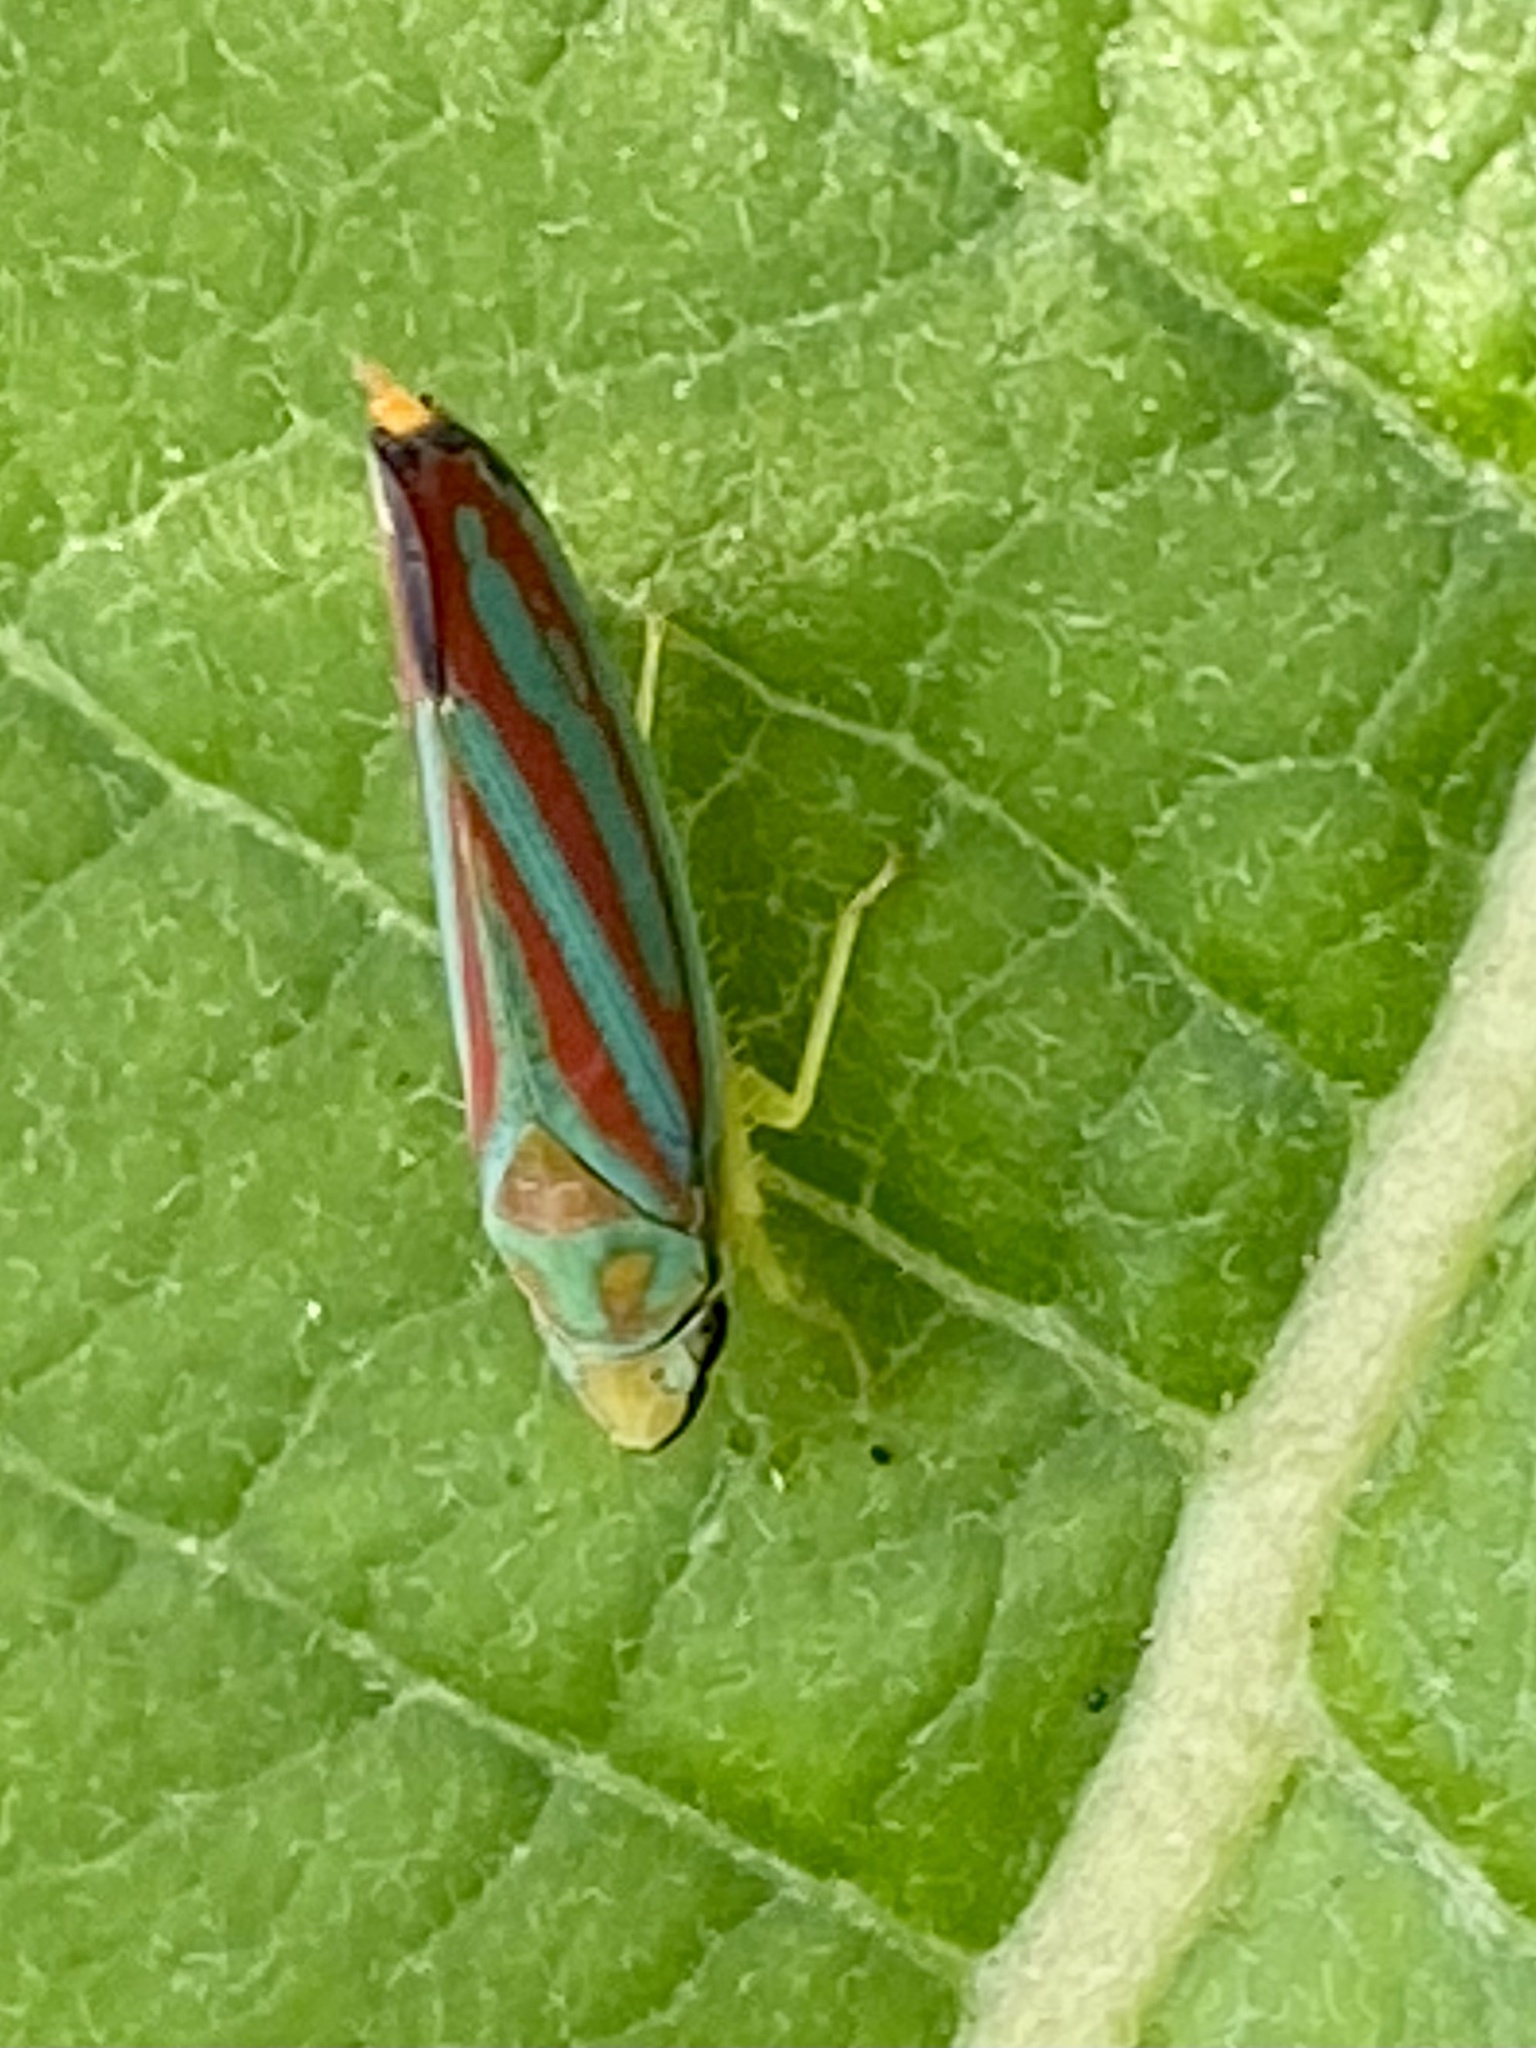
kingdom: Animalia
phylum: Arthropoda
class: Insecta
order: Hemiptera
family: Cicadellidae
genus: Graphocephala
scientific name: Graphocephala coccinea
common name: Candy-striped leafhopper
